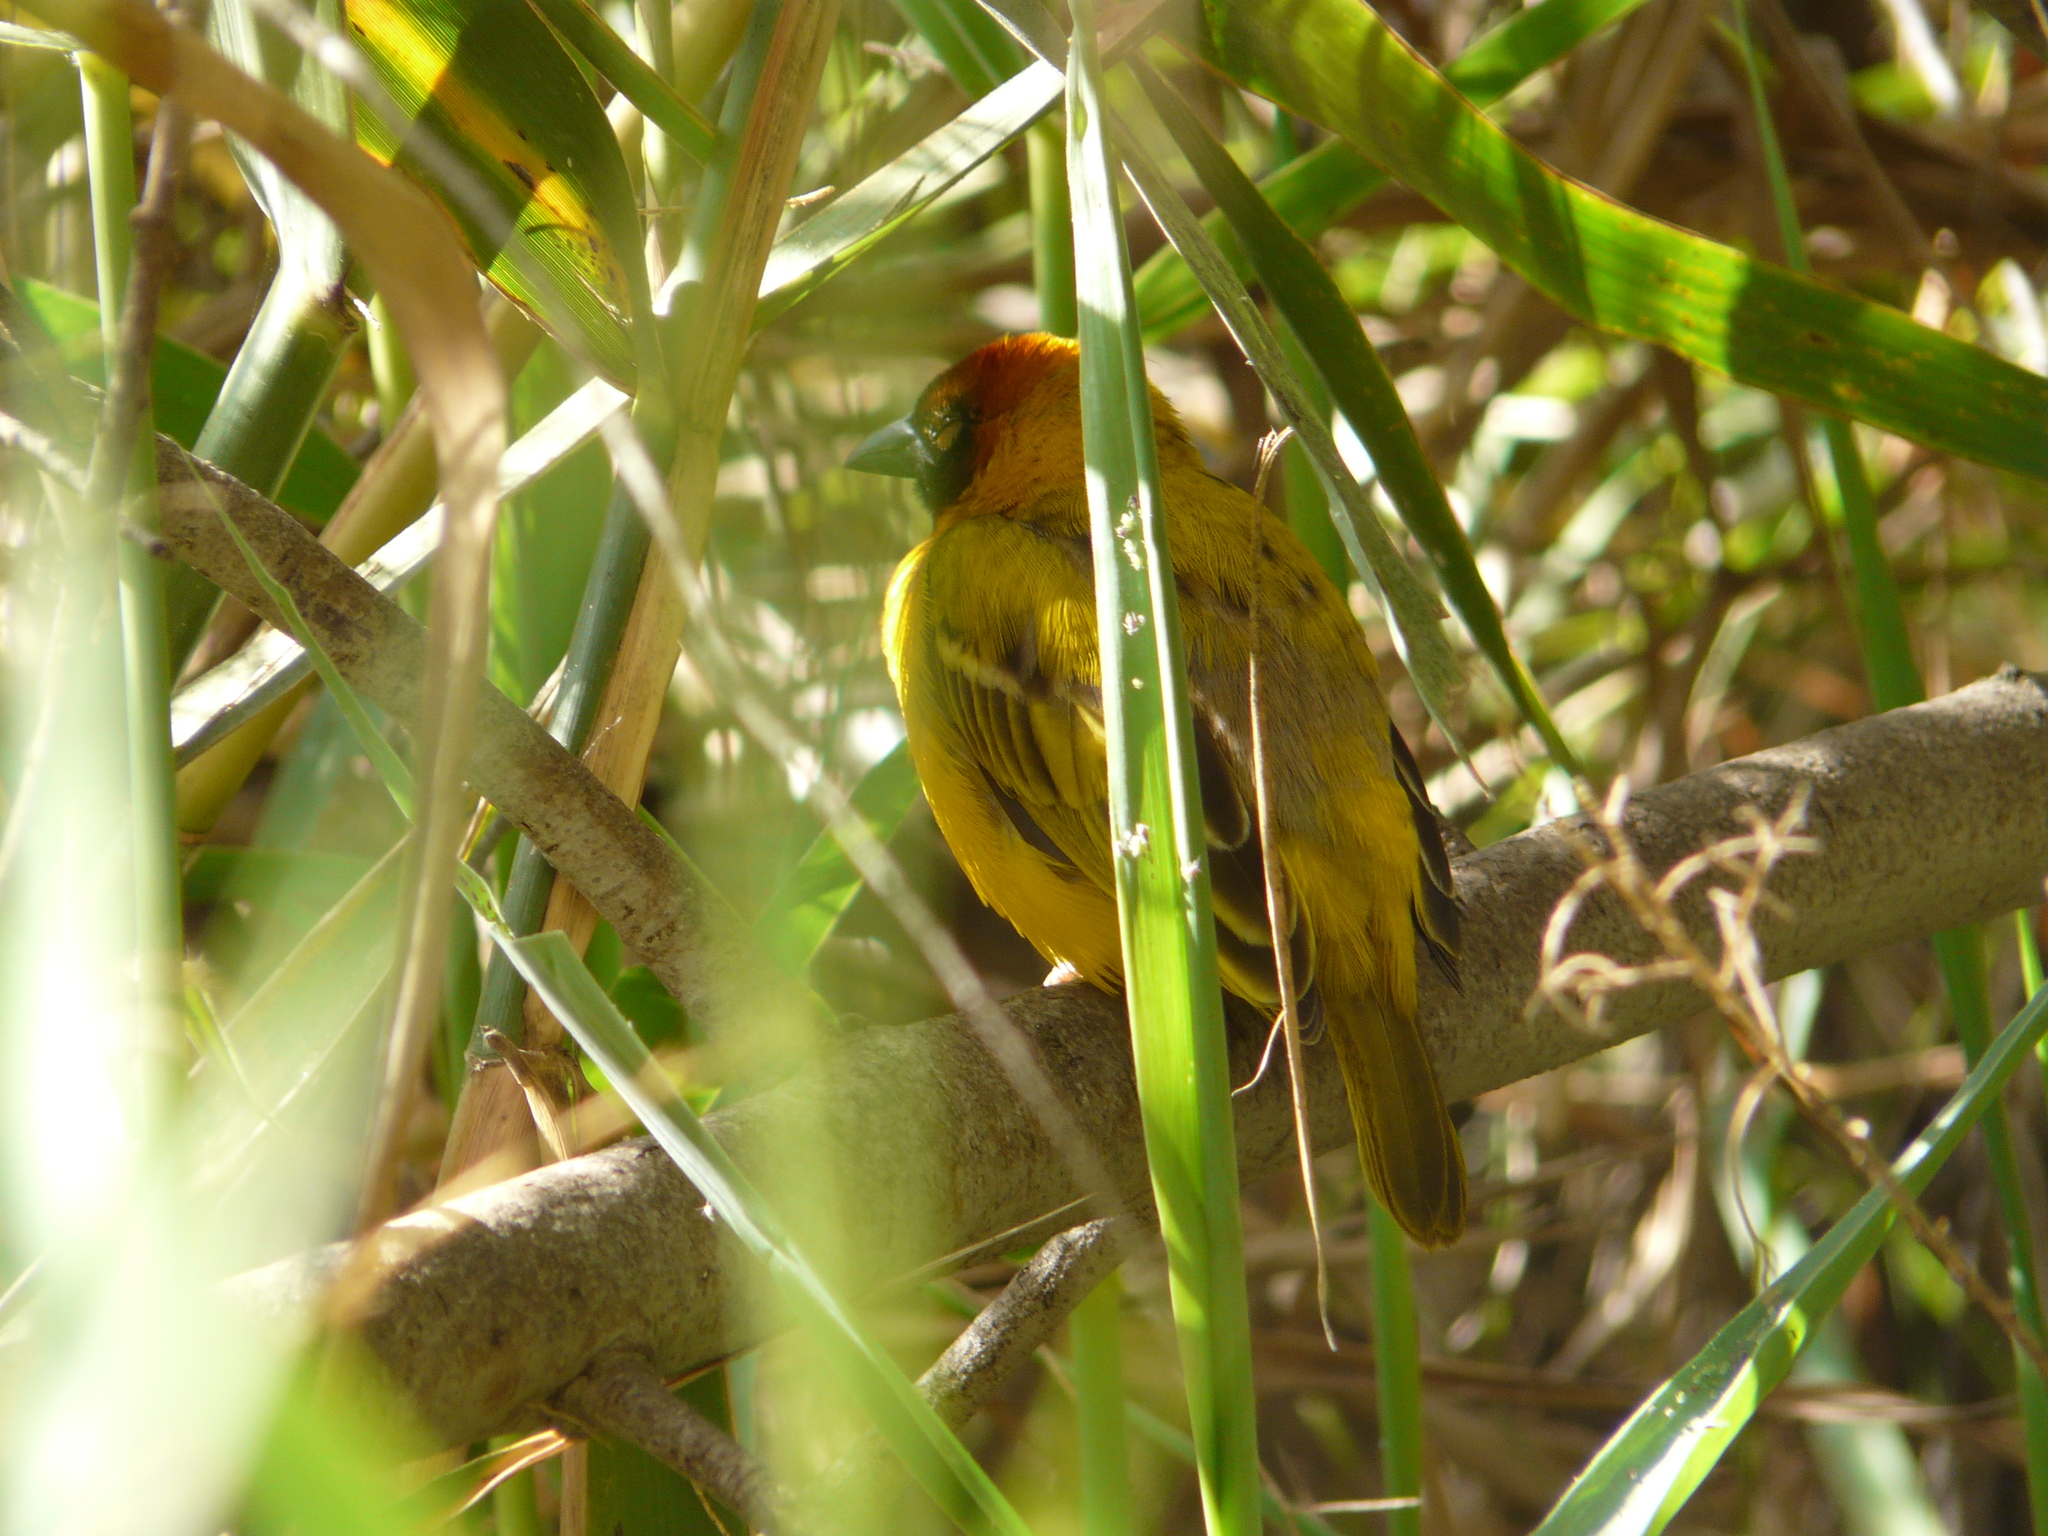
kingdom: Animalia
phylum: Chordata
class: Aves
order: Passeriformes
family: Ploceidae
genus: Ploceus
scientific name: Ploceus galbula
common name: Rüppell's weaver
